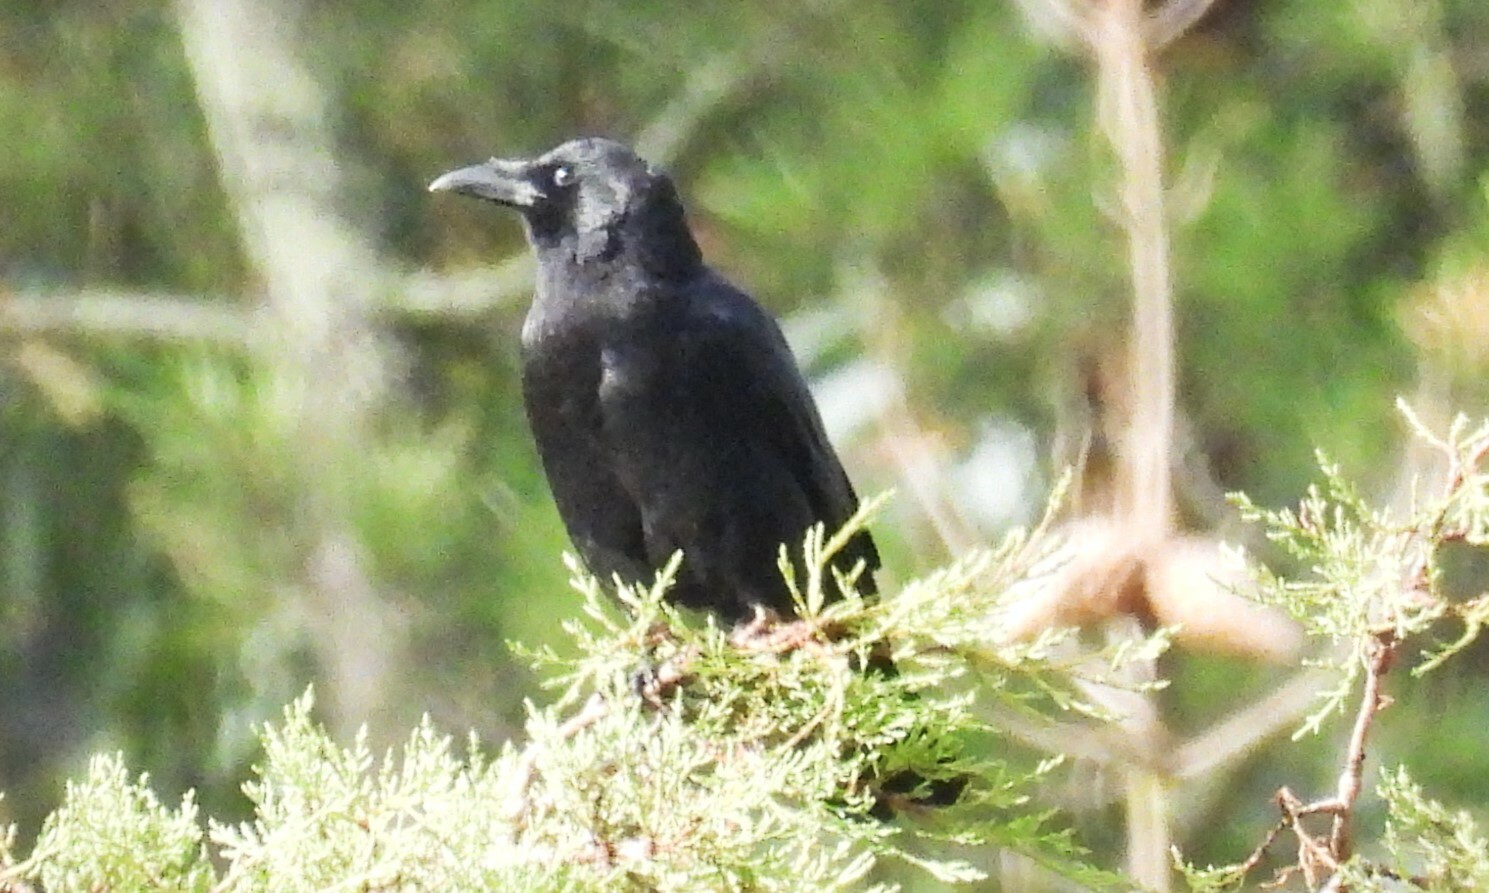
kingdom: Animalia
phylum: Chordata
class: Aves
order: Passeriformes
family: Corvidae
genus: Corvus
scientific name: Corvus brachyrhynchos
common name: American crow
